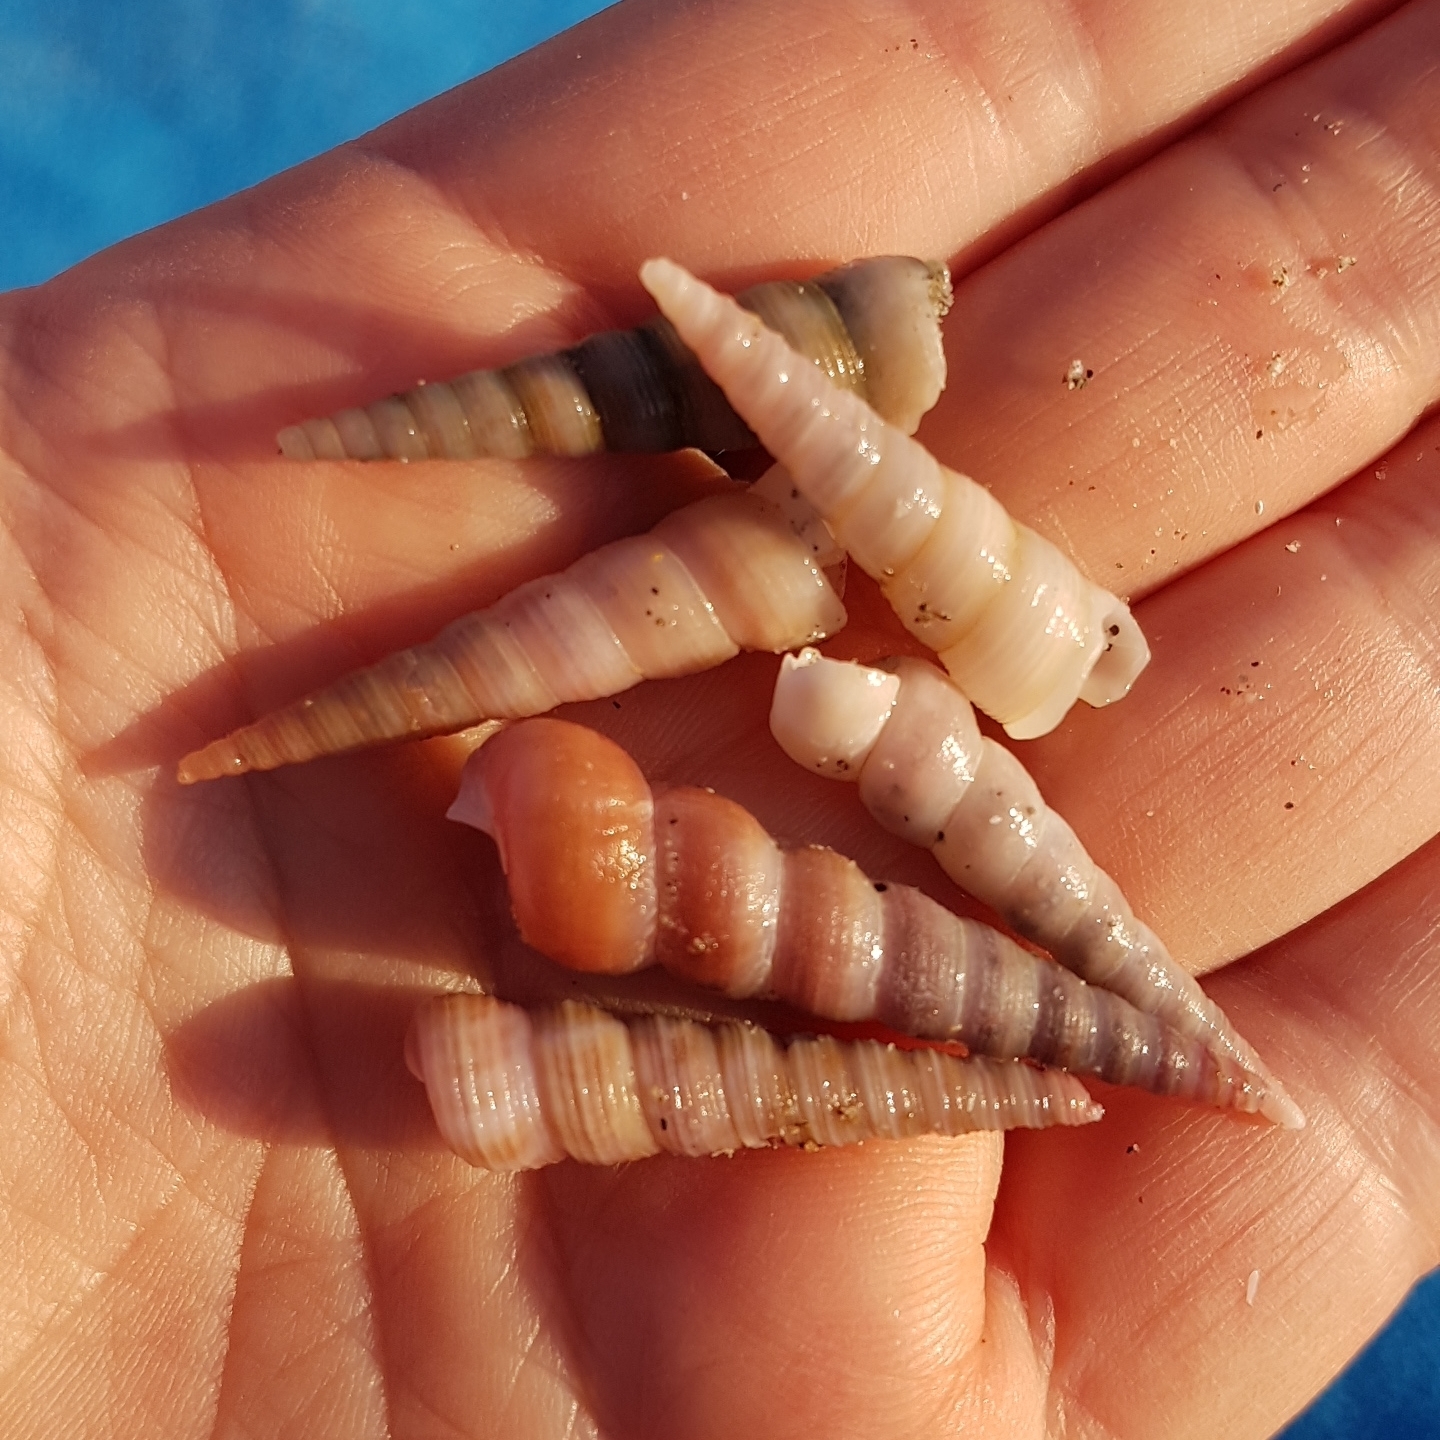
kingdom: Animalia
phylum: Mollusca
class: Gastropoda
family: Turritellidae
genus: Turritellinella
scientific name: Turritellinella tricarinata
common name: Auger shell
